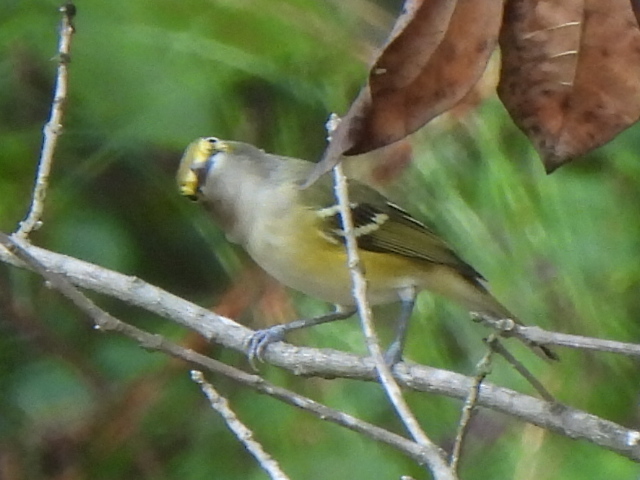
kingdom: Animalia
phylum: Chordata
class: Aves
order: Passeriformes
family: Vireonidae
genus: Vireo
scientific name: Vireo griseus
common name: White-eyed vireo
